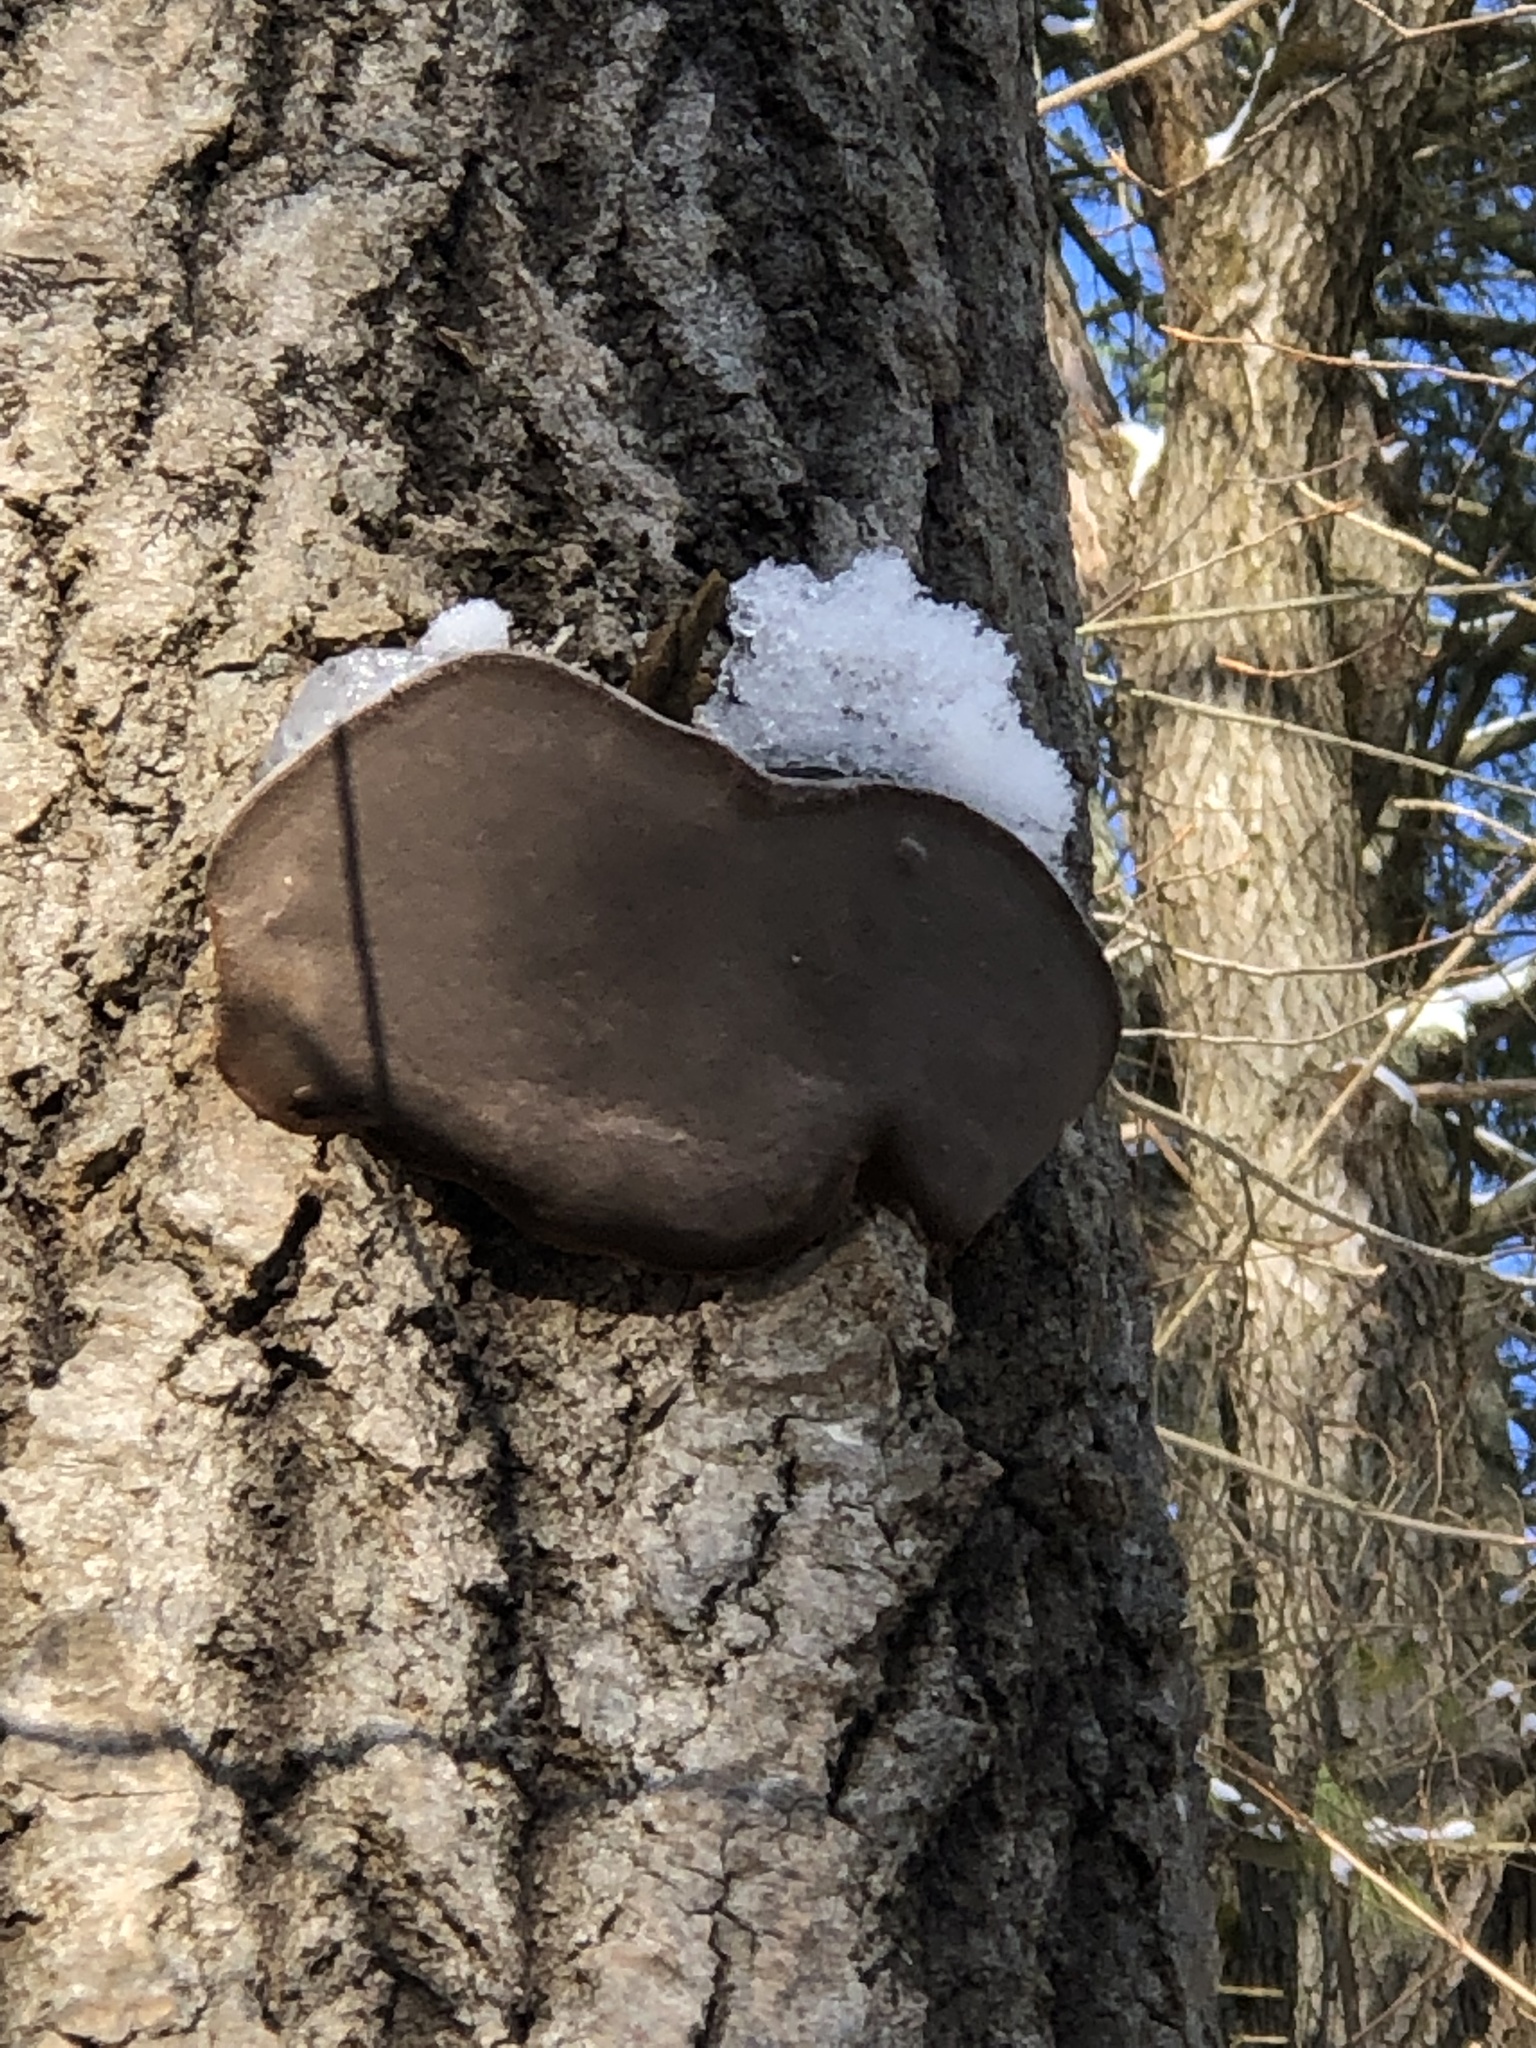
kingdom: Fungi
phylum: Basidiomycota
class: Agaricomycetes
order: Hymenochaetales
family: Hymenochaetaceae
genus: Phellinus
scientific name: Phellinus tremulae
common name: Aspen bracket
